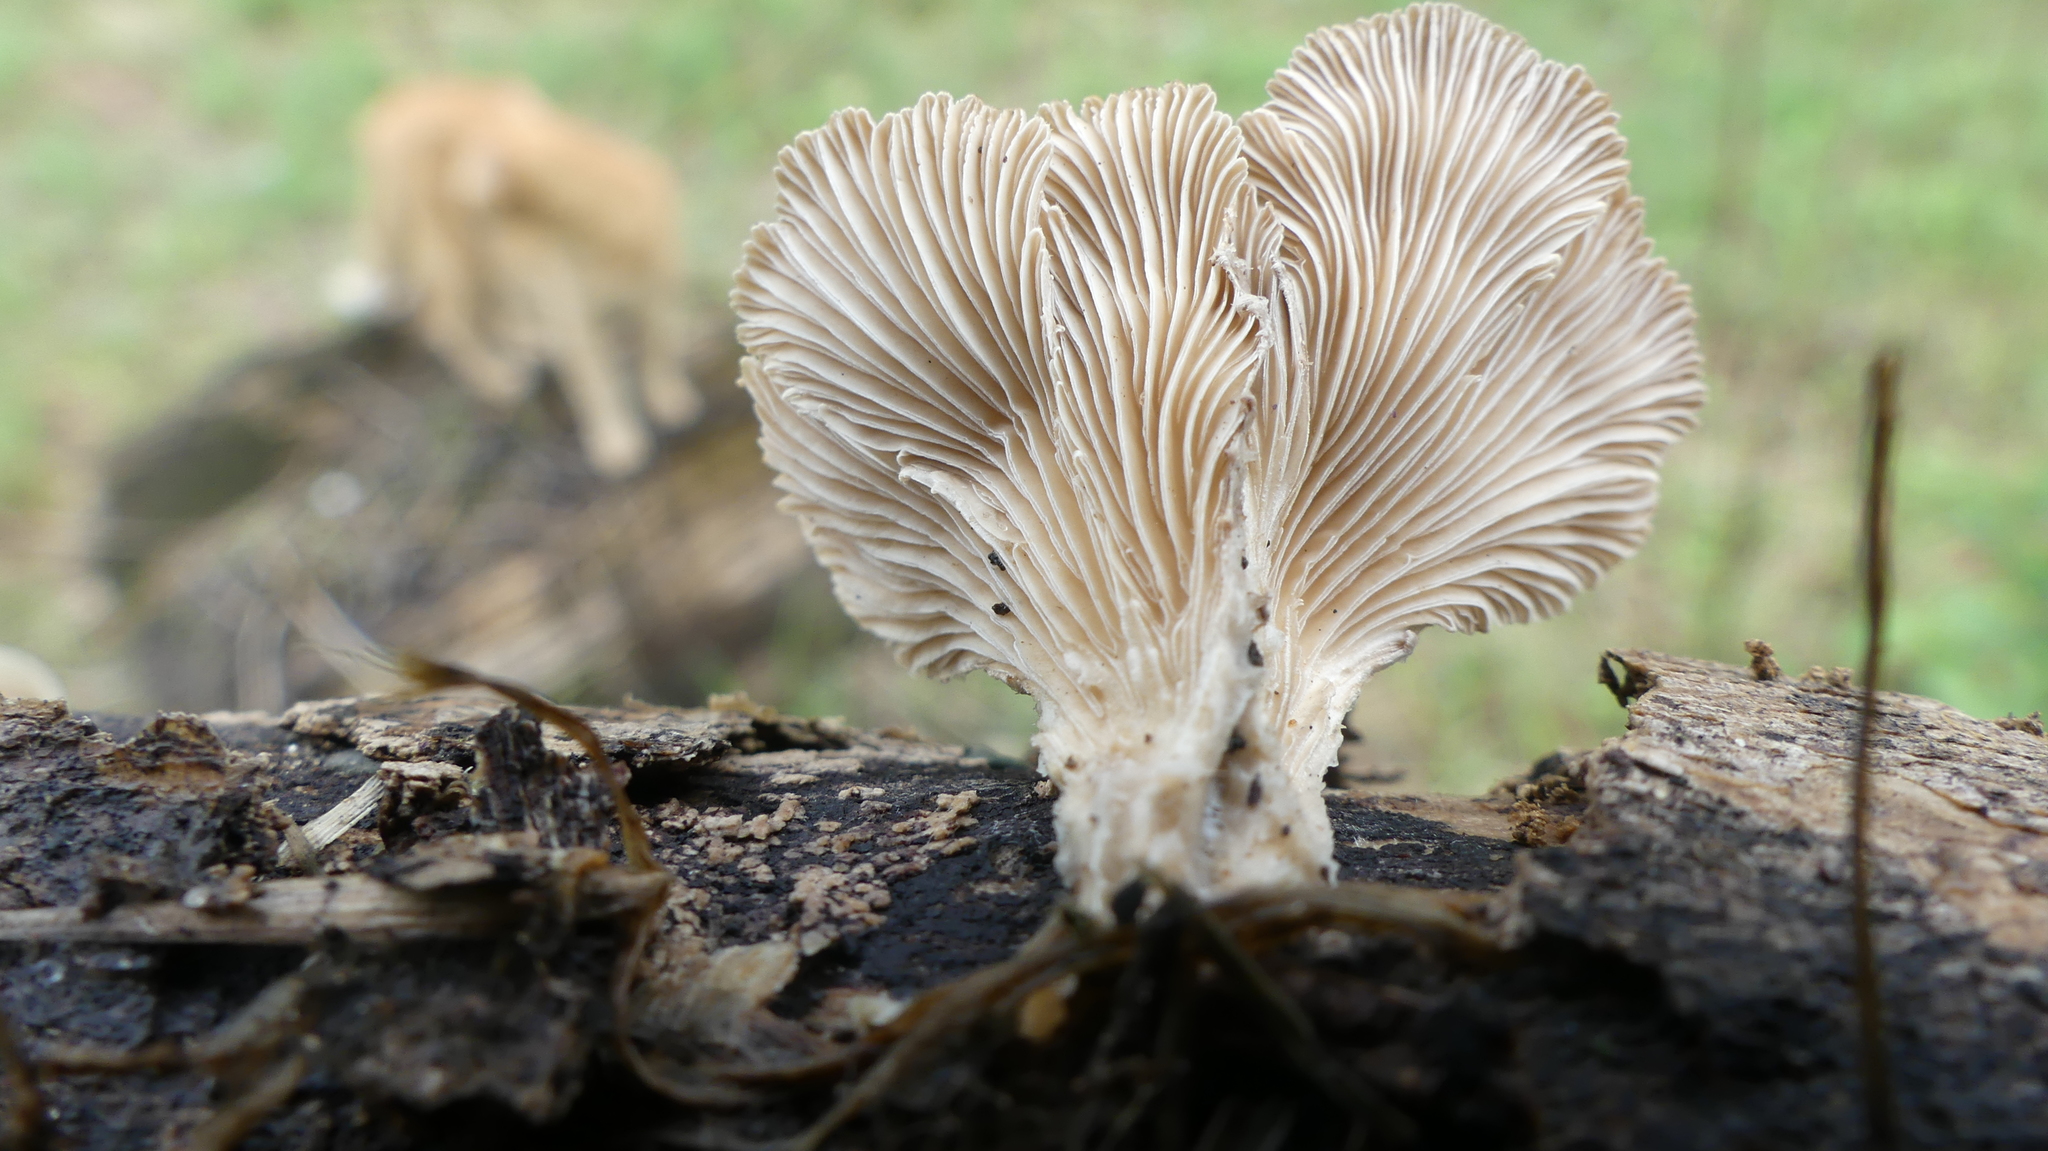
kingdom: Fungi
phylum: Basidiomycota
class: Agaricomycetes
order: Agaricales
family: Schizophyllaceae
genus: Schizophyllum
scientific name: Schizophyllum commune
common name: Common porecrust
